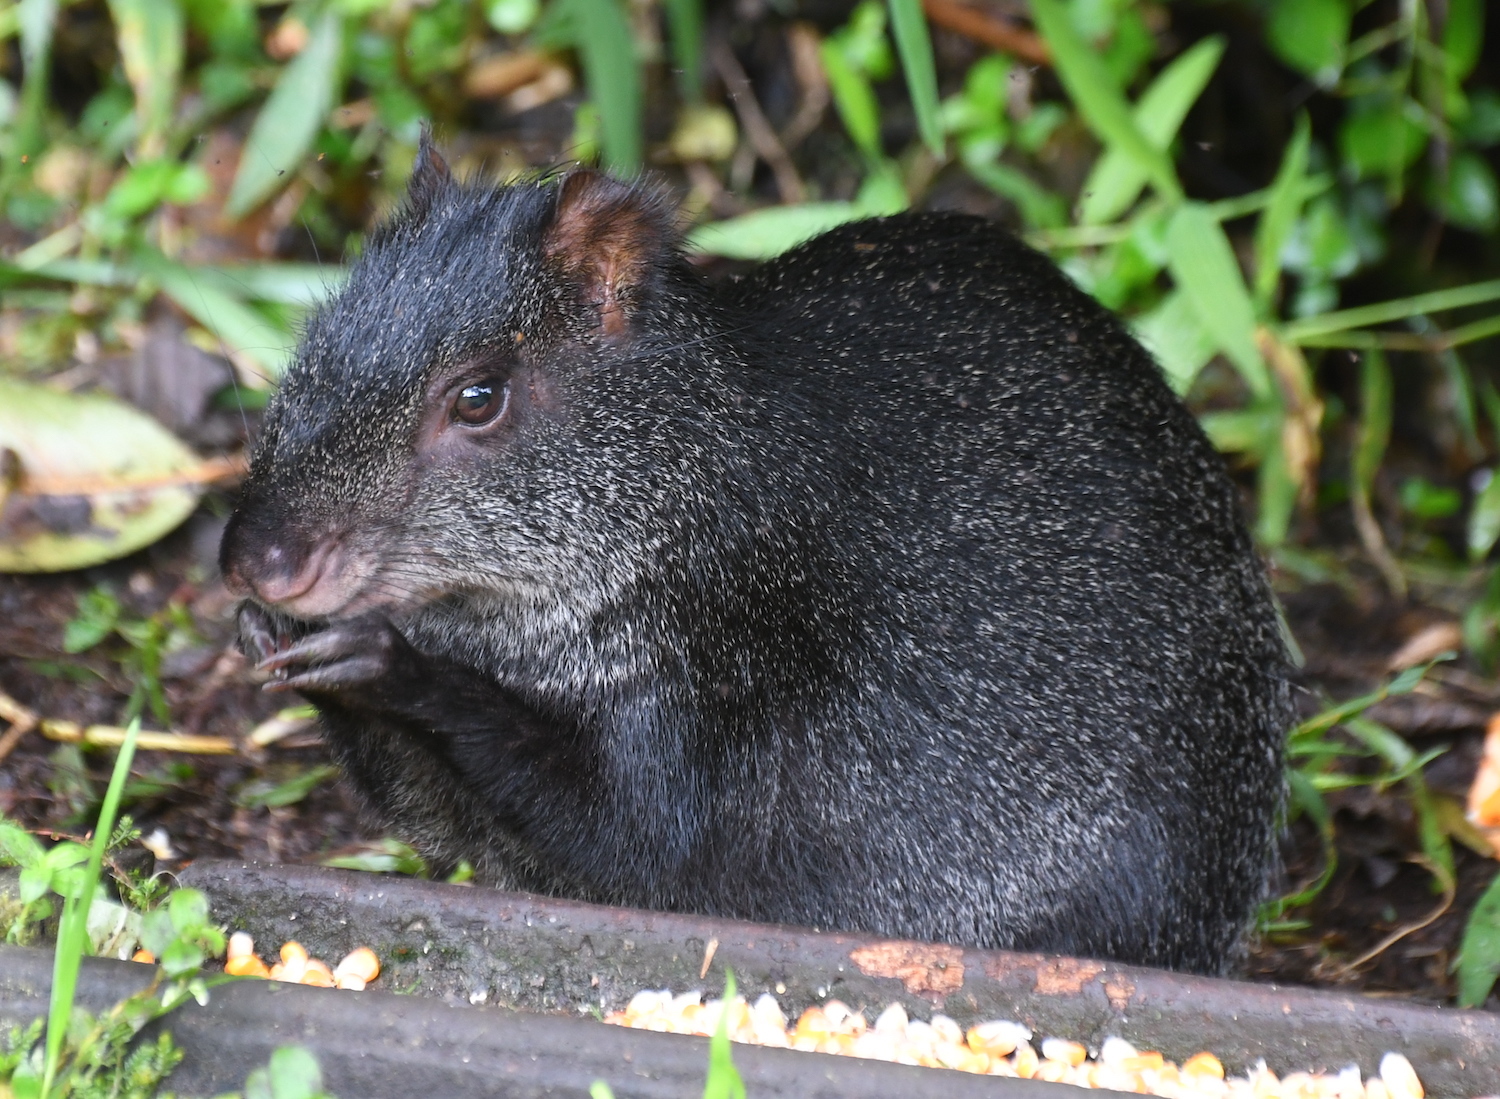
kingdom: Animalia
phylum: Chordata
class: Mammalia
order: Rodentia
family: Dasyproctidae
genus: Dasyprocta
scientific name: Dasyprocta fuliginosa
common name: Black agouti
